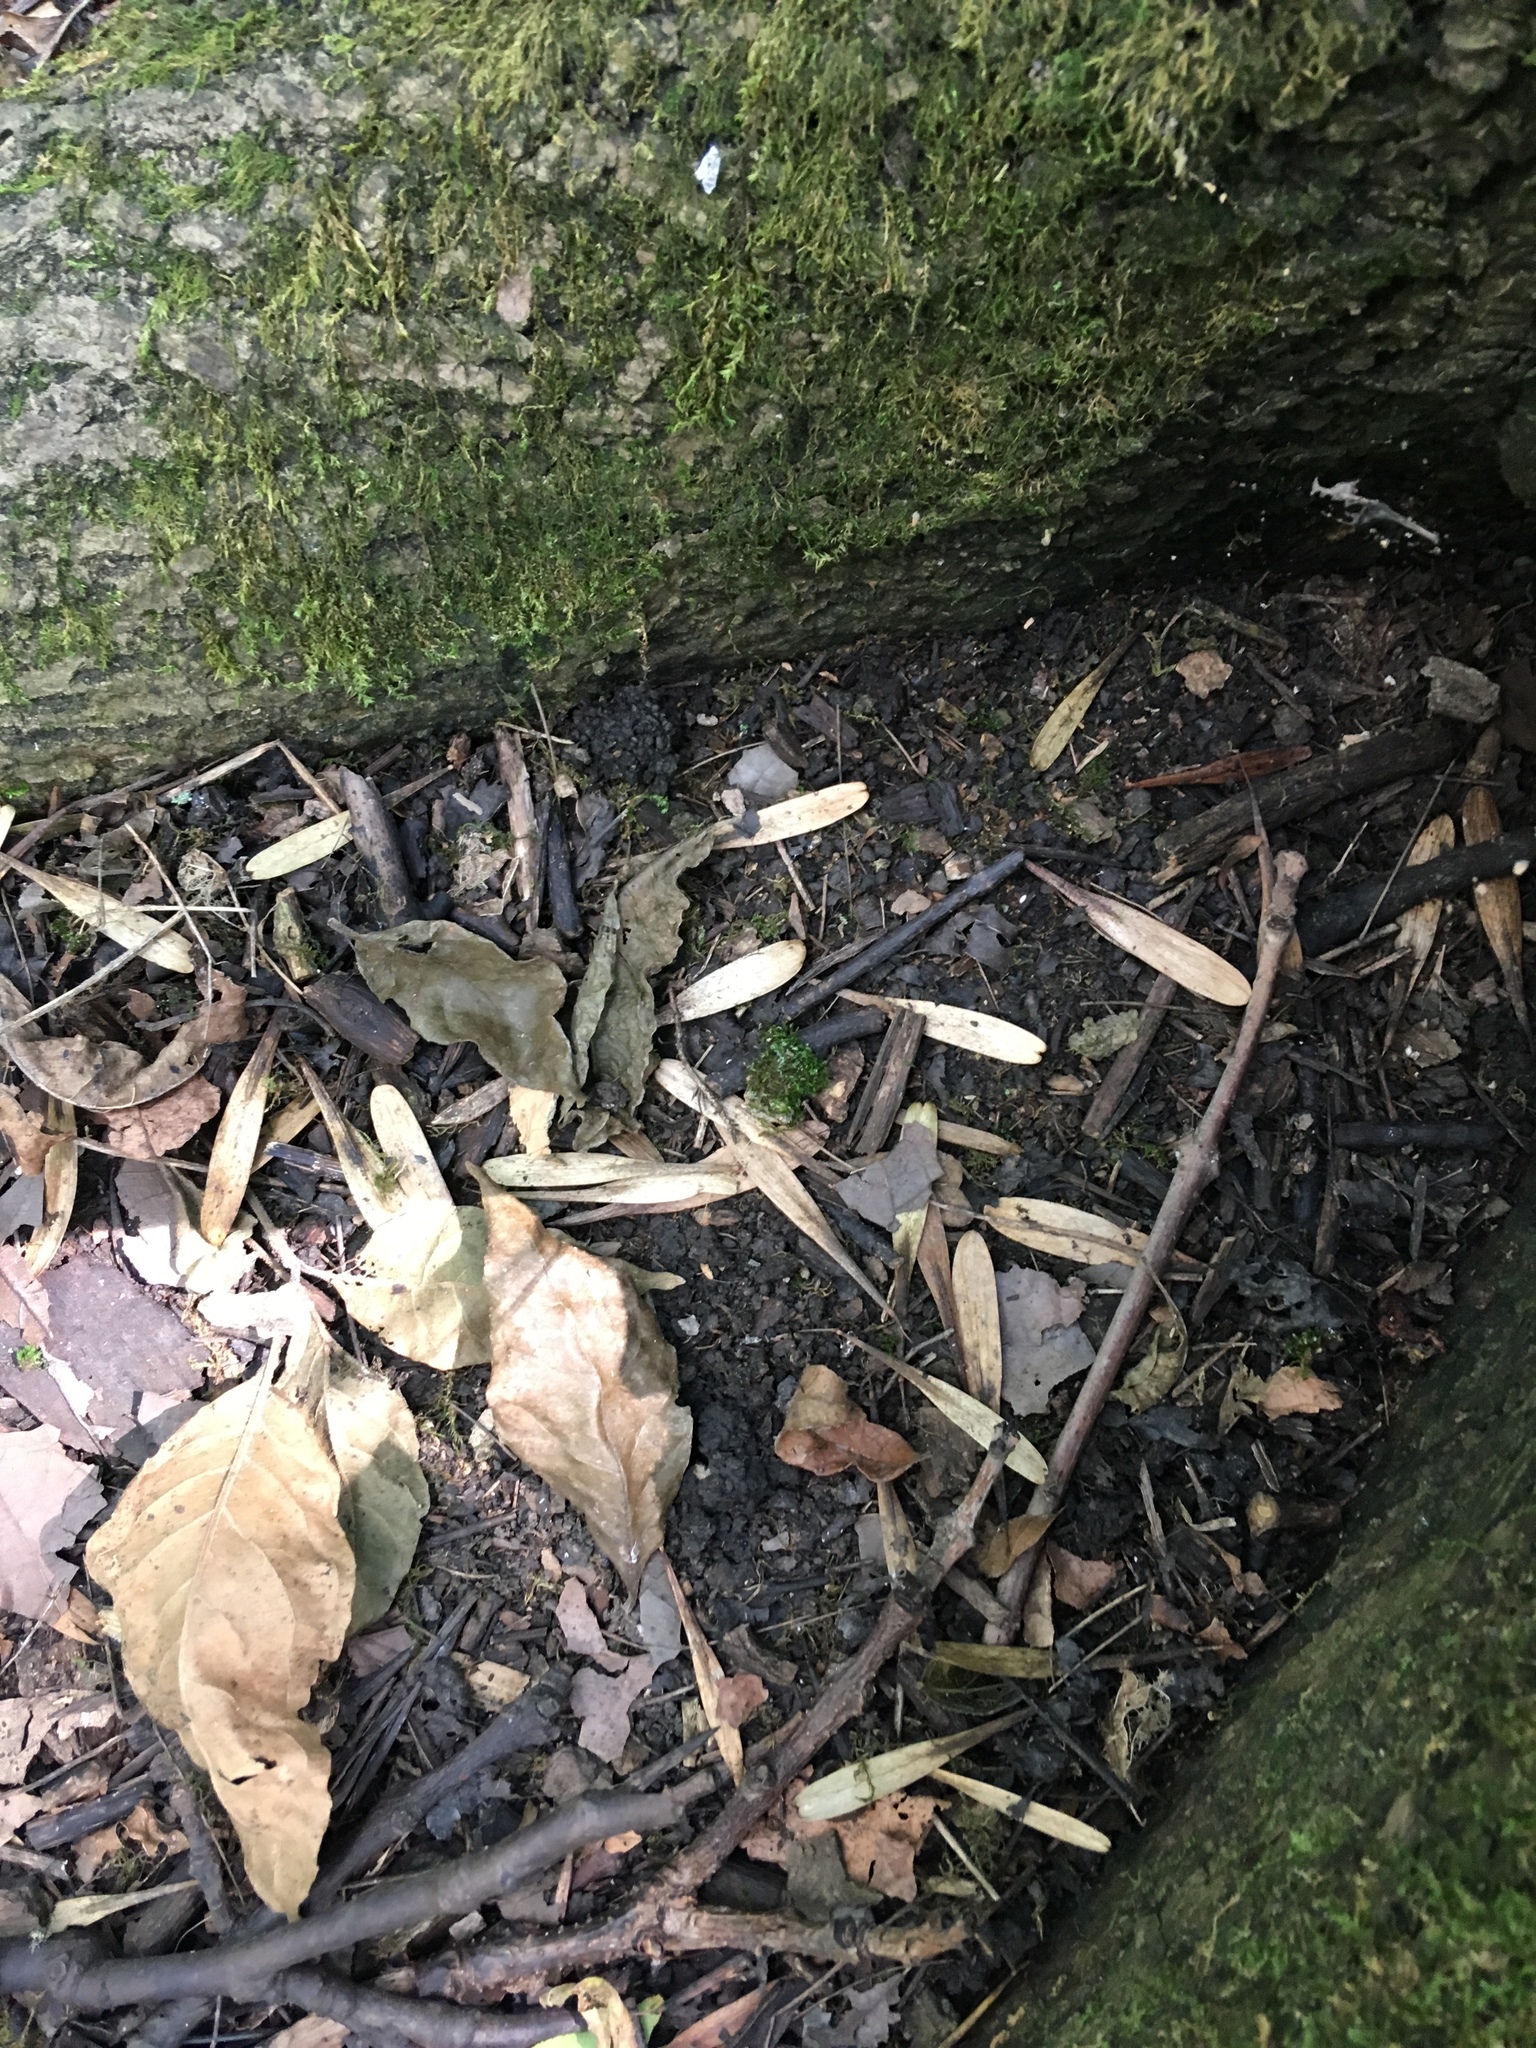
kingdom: Plantae
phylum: Tracheophyta
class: Magnoliopsida
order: Lamiales
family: Oleaceae
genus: Fraxinus
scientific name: Fraxinus pennsylvanica
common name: Green ash
